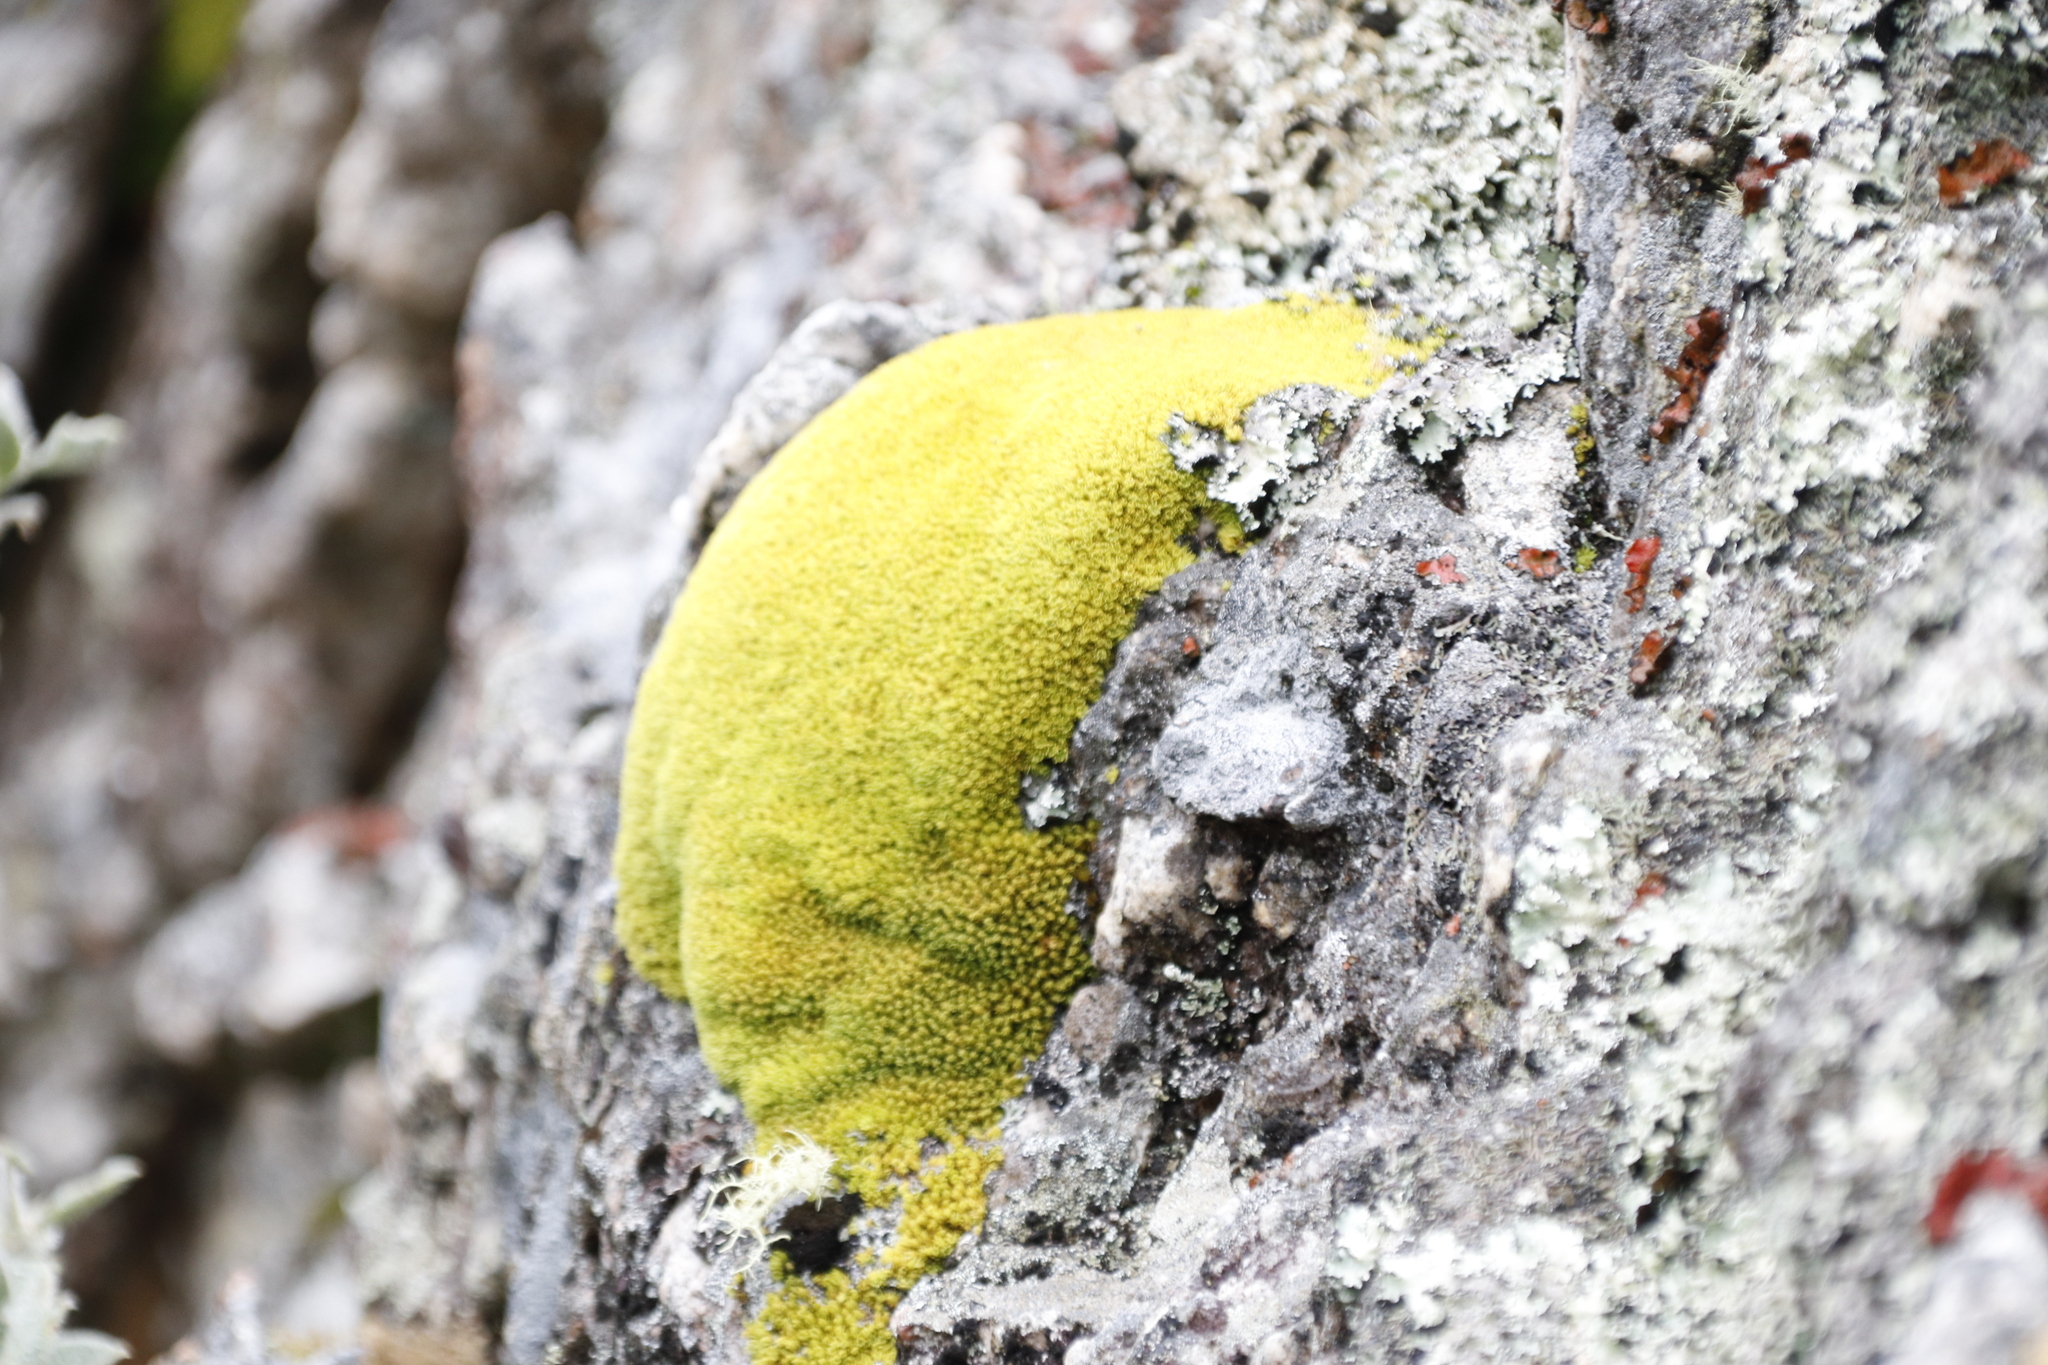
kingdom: Plantae
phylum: Bryophyta
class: Bryopsida
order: Dicranales
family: Hypodontiaceae
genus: Hypodontium
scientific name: Hypodontium pomiforme
